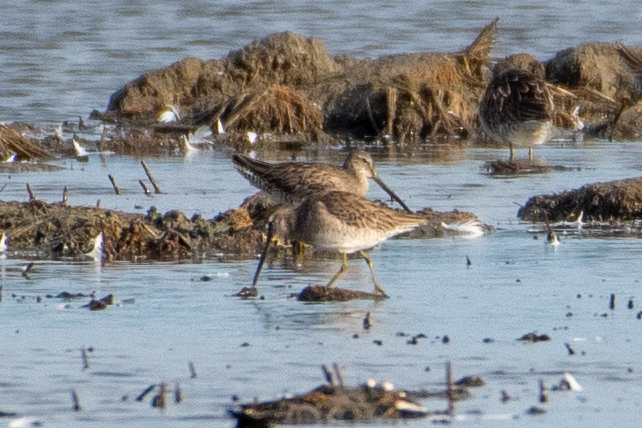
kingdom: Animalia
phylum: Chordata
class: Aves
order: Charadriiformes
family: Scolopacidae
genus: Limnodromus
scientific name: Limnodromus scolopaceus
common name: Long-billed dowitcher
